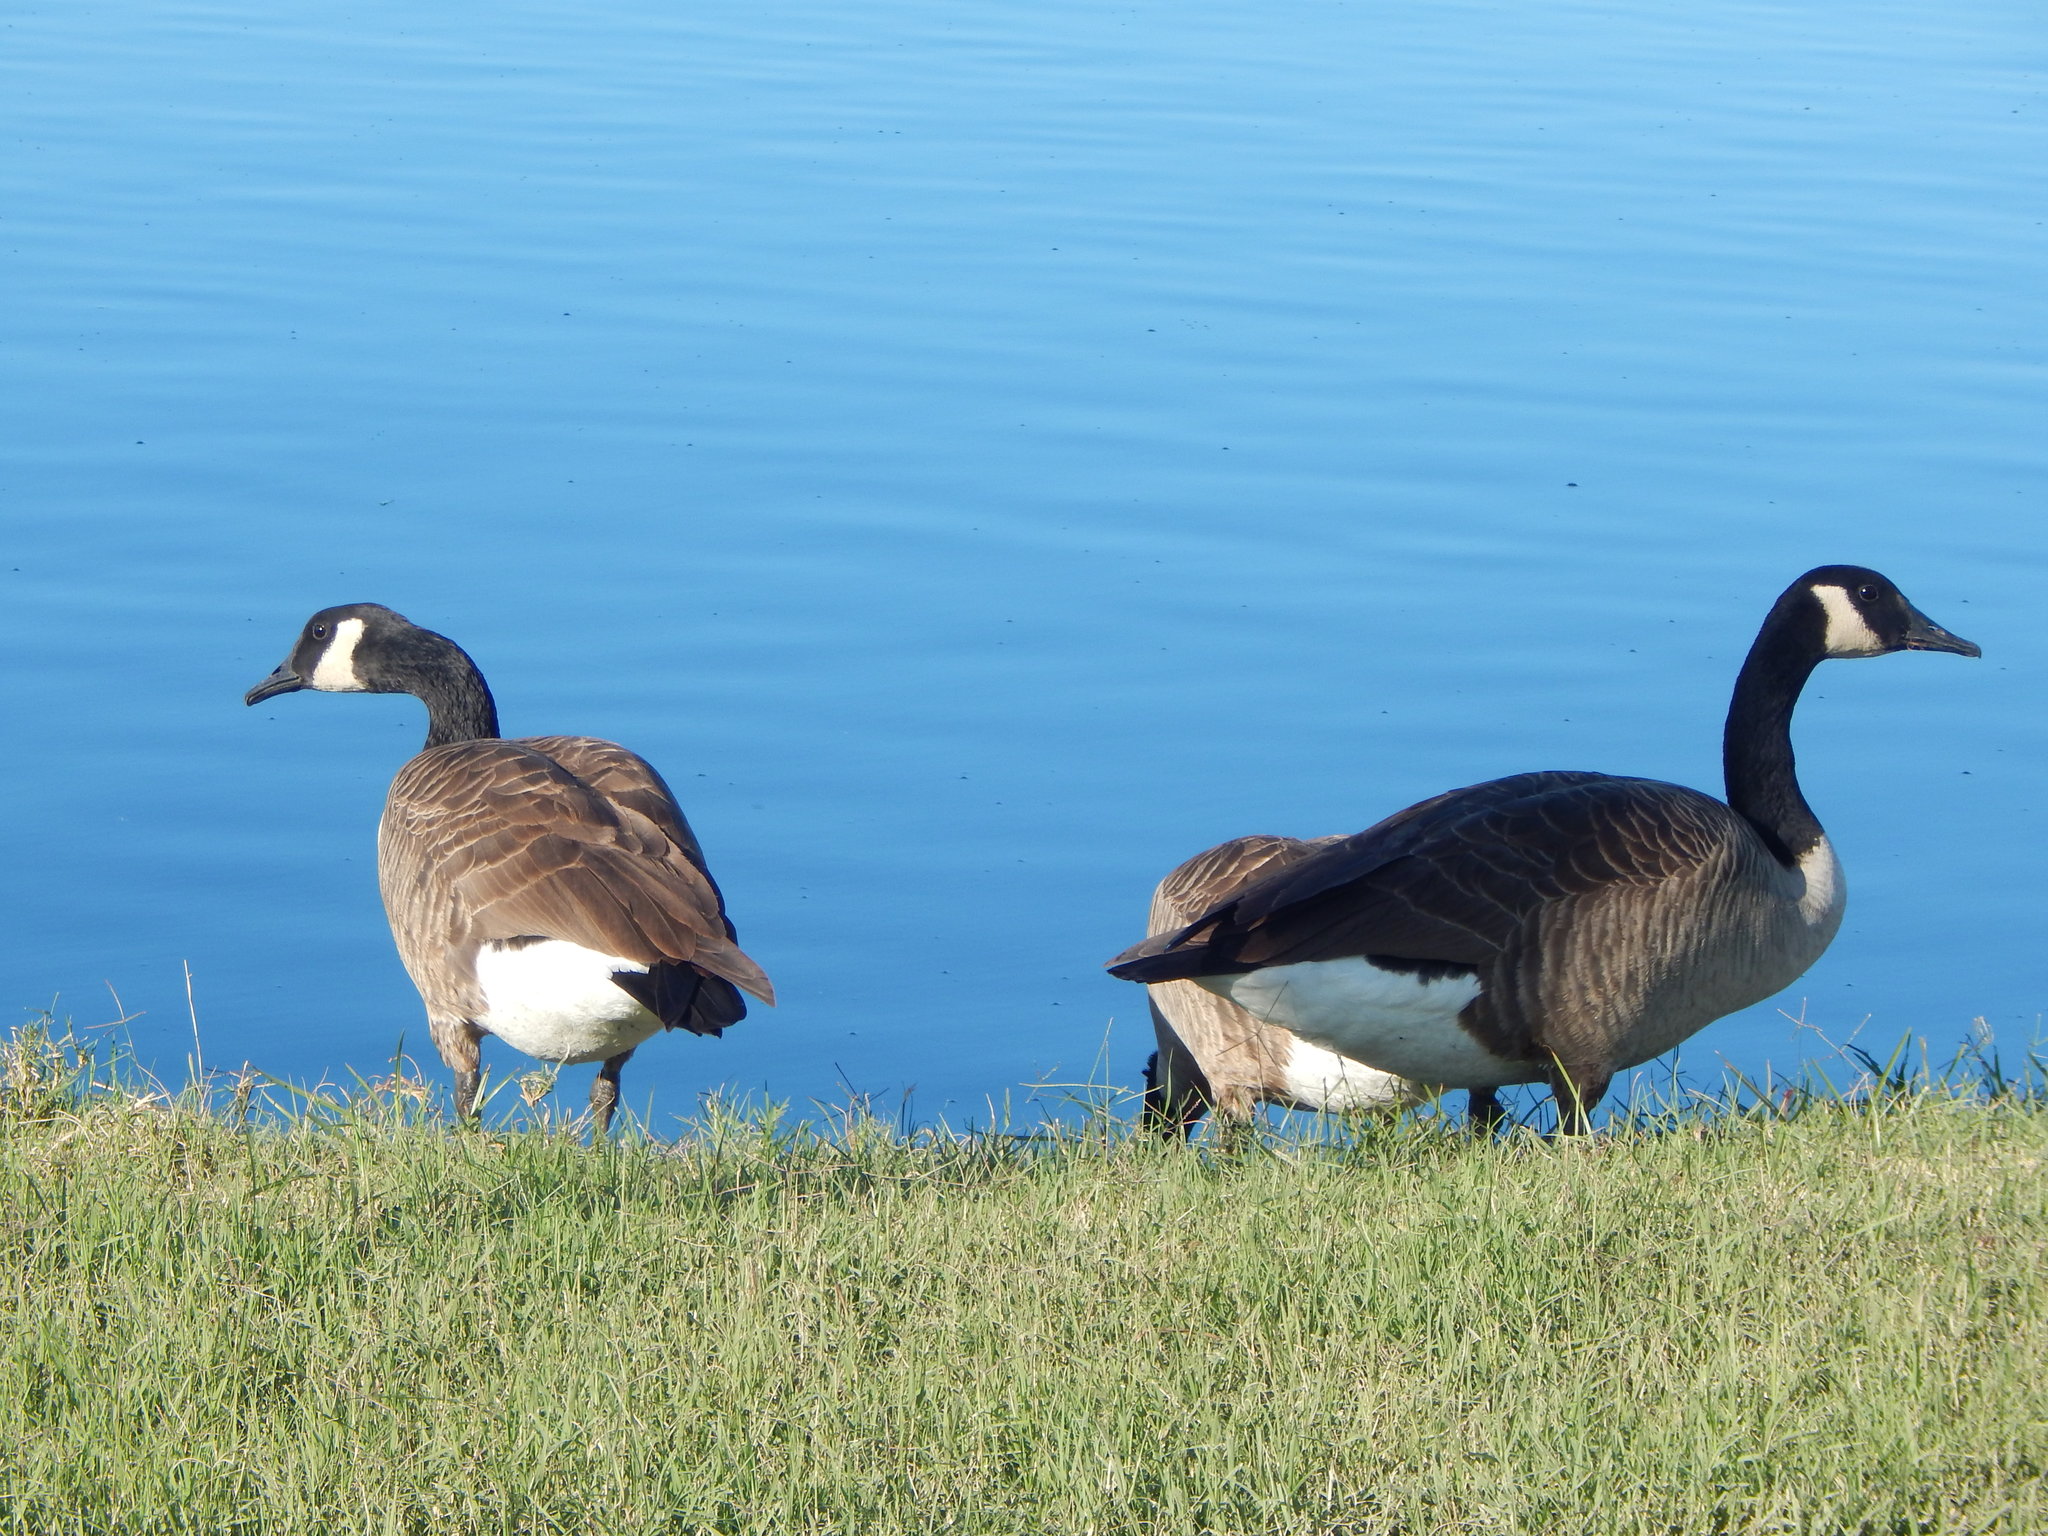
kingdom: Animalia
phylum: Chordata
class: Aves
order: Anseriformes
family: Anatidae
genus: Branta
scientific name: Branta canadensis
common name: Canada goose
